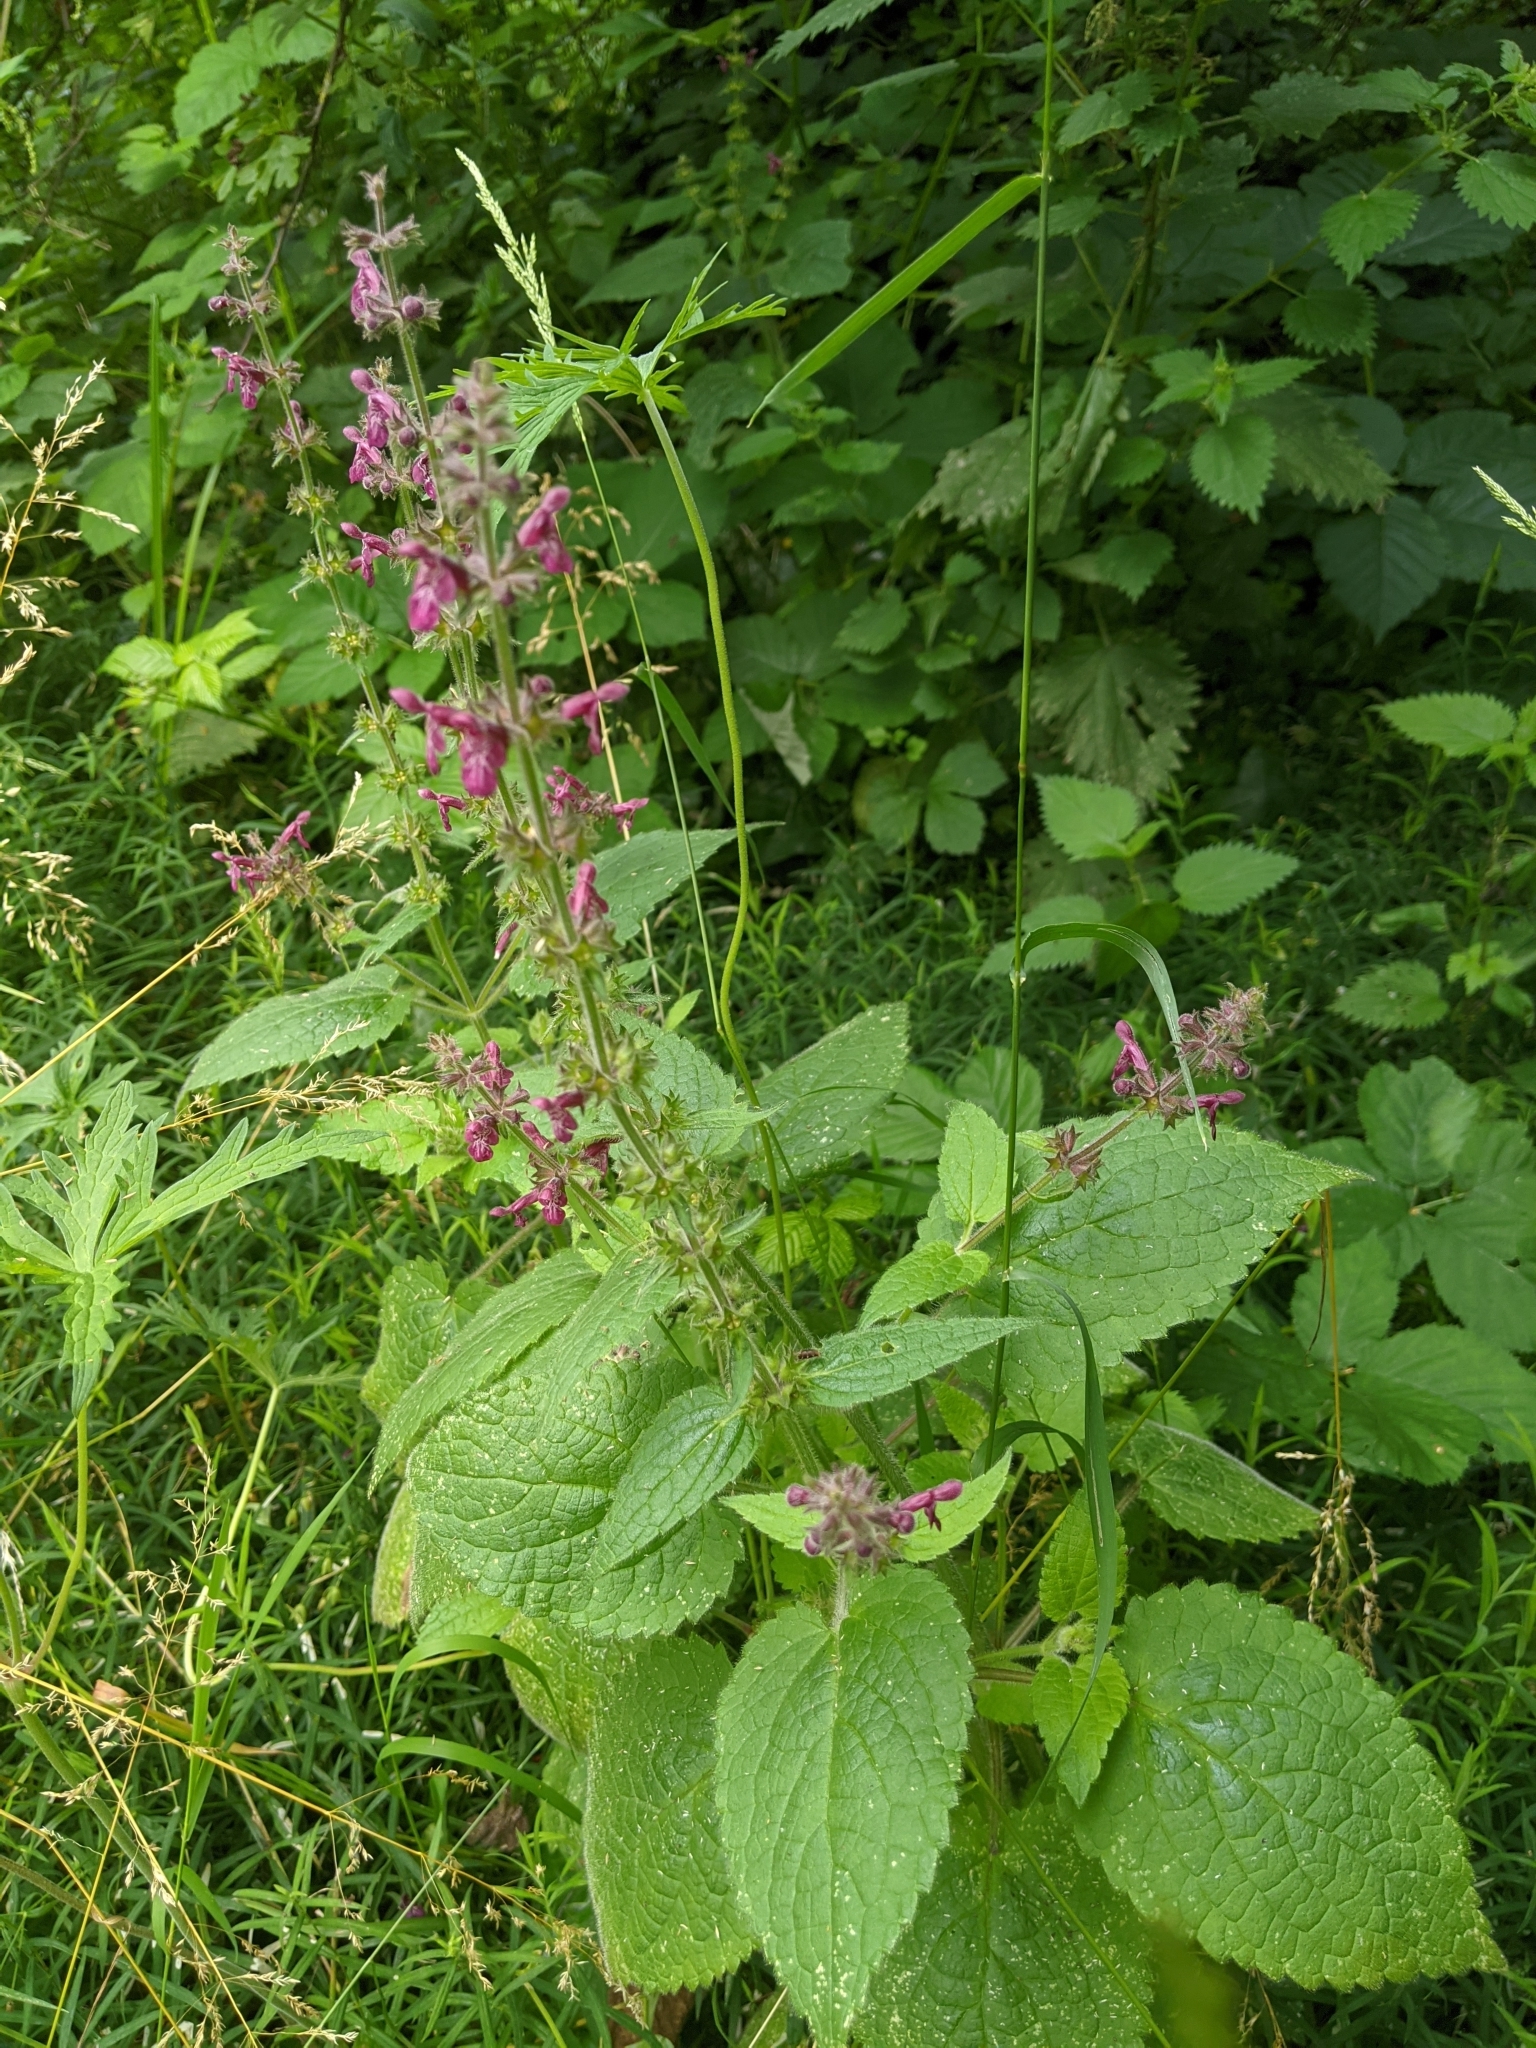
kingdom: Plantae
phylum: Tracheophyta
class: Magnoliopsida
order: Lamiales
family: Lamiaceae
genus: Stachys
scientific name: Stachys sylvatica
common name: Hedge woundwort
